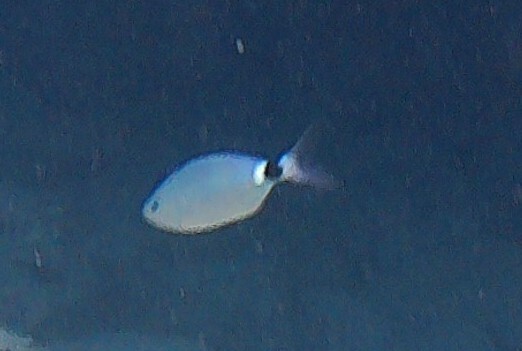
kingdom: Animalia
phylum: Chordata
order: Perciformes
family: Sparidae
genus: Oblada
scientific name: Oblada melanura
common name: Saddled seabream
